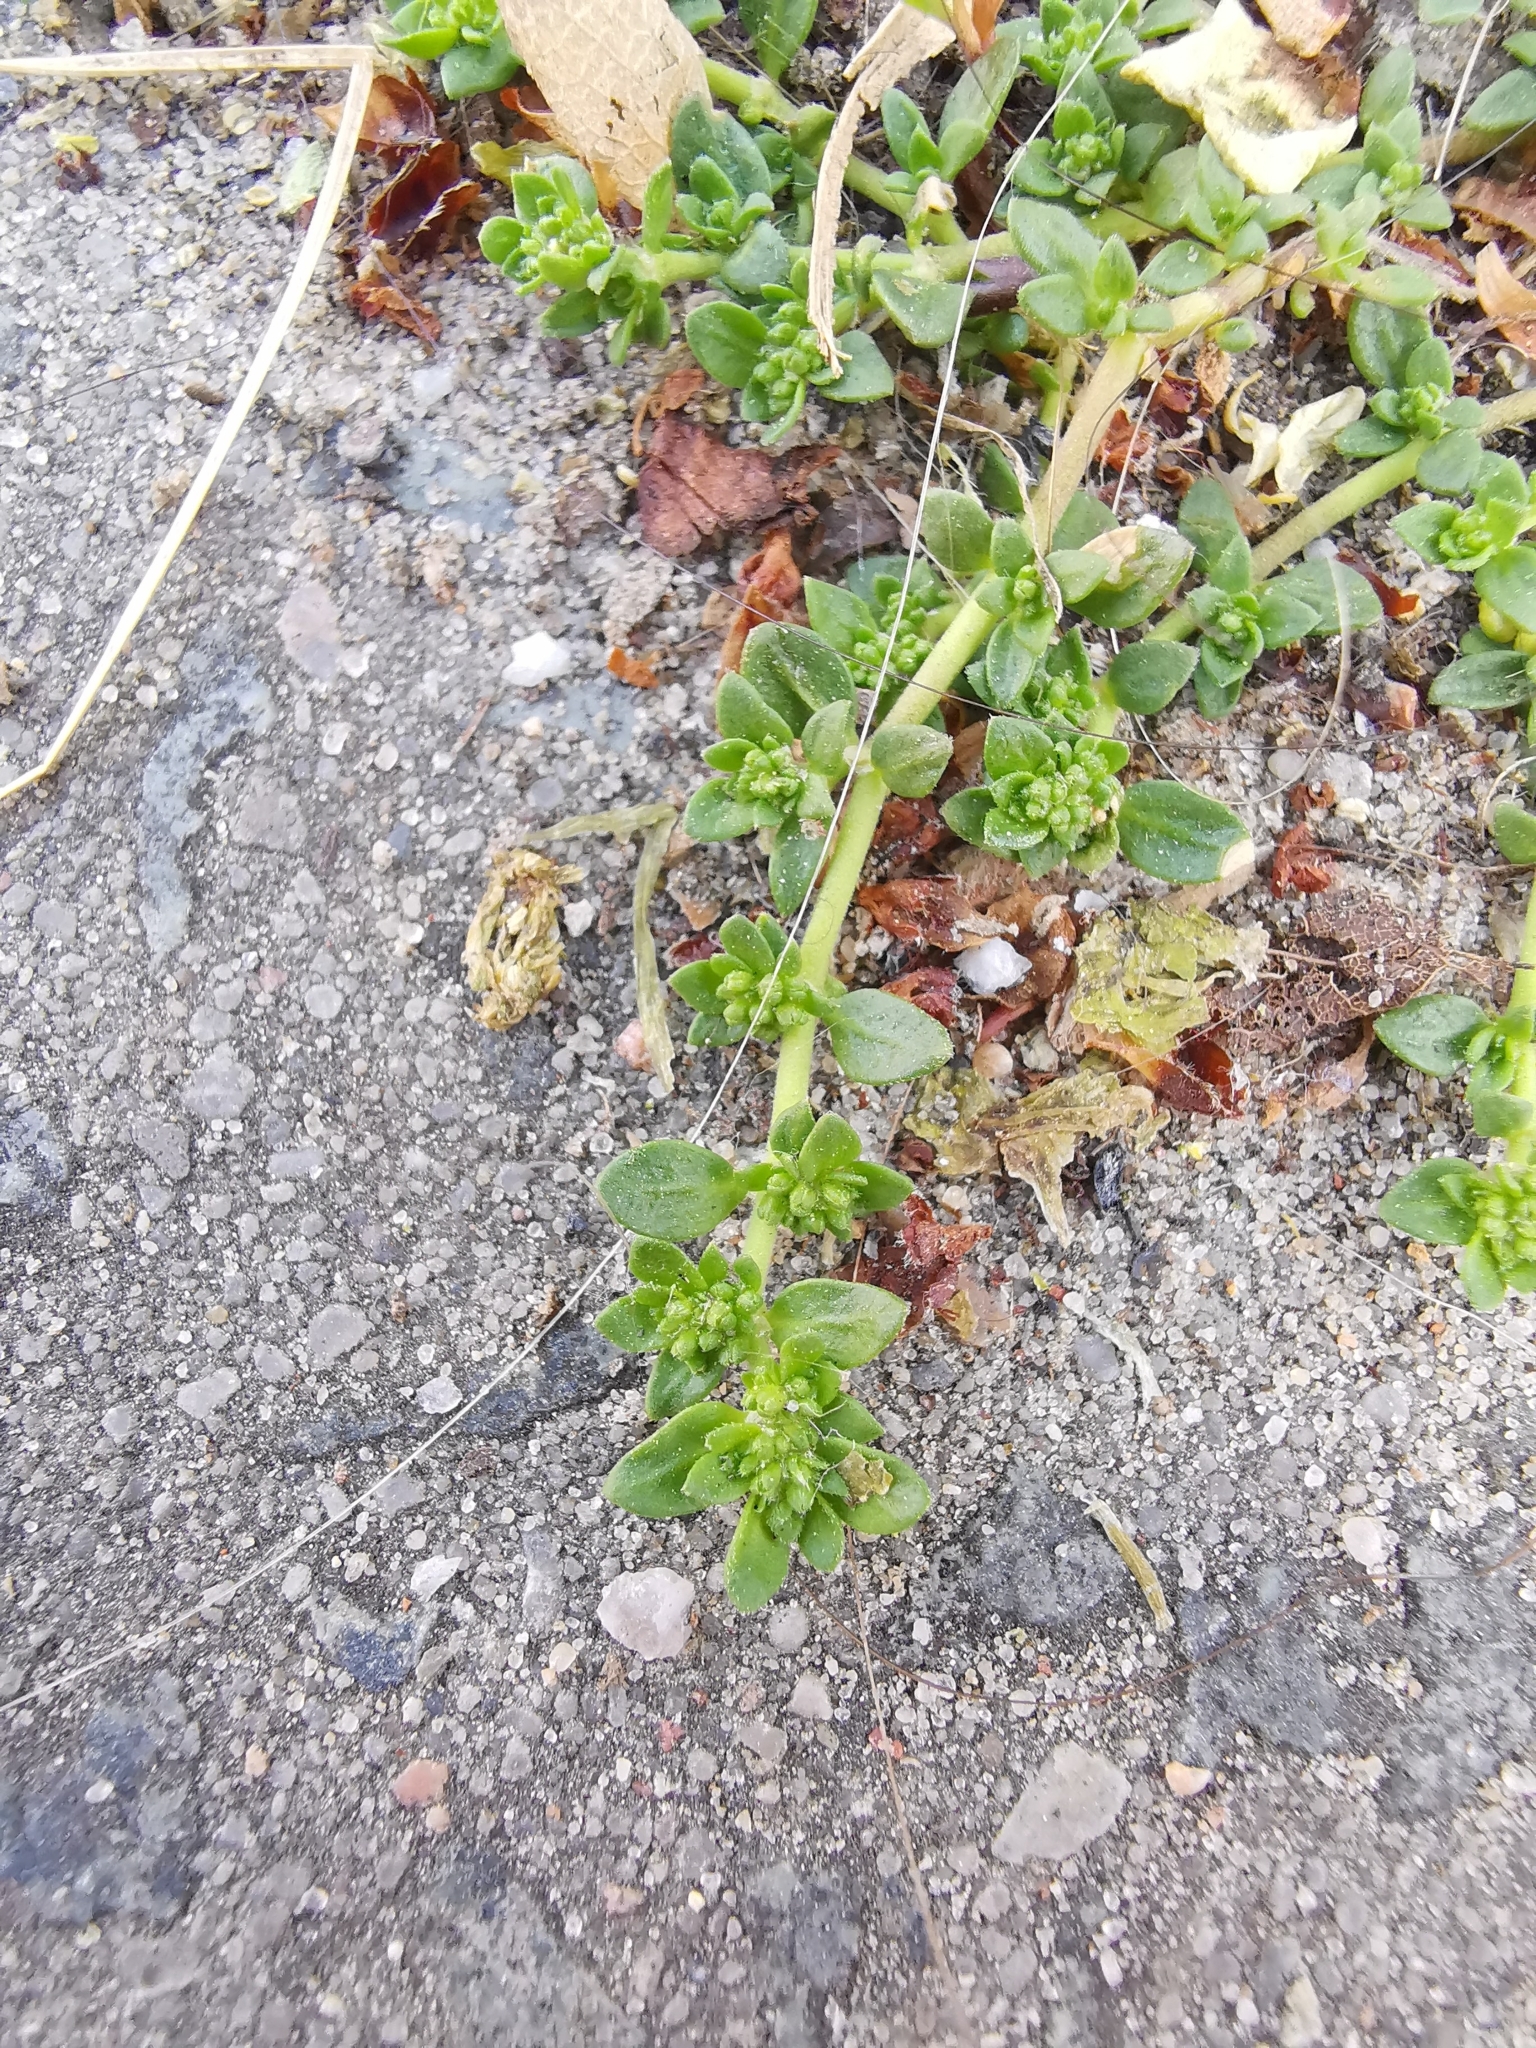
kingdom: Plantae
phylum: Tracheophyta
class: Magnoliopsida
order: Caryophyllales
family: Caryophyllaceae
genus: Herniaria
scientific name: Herniaria glabra
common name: Smooth rupturewort
